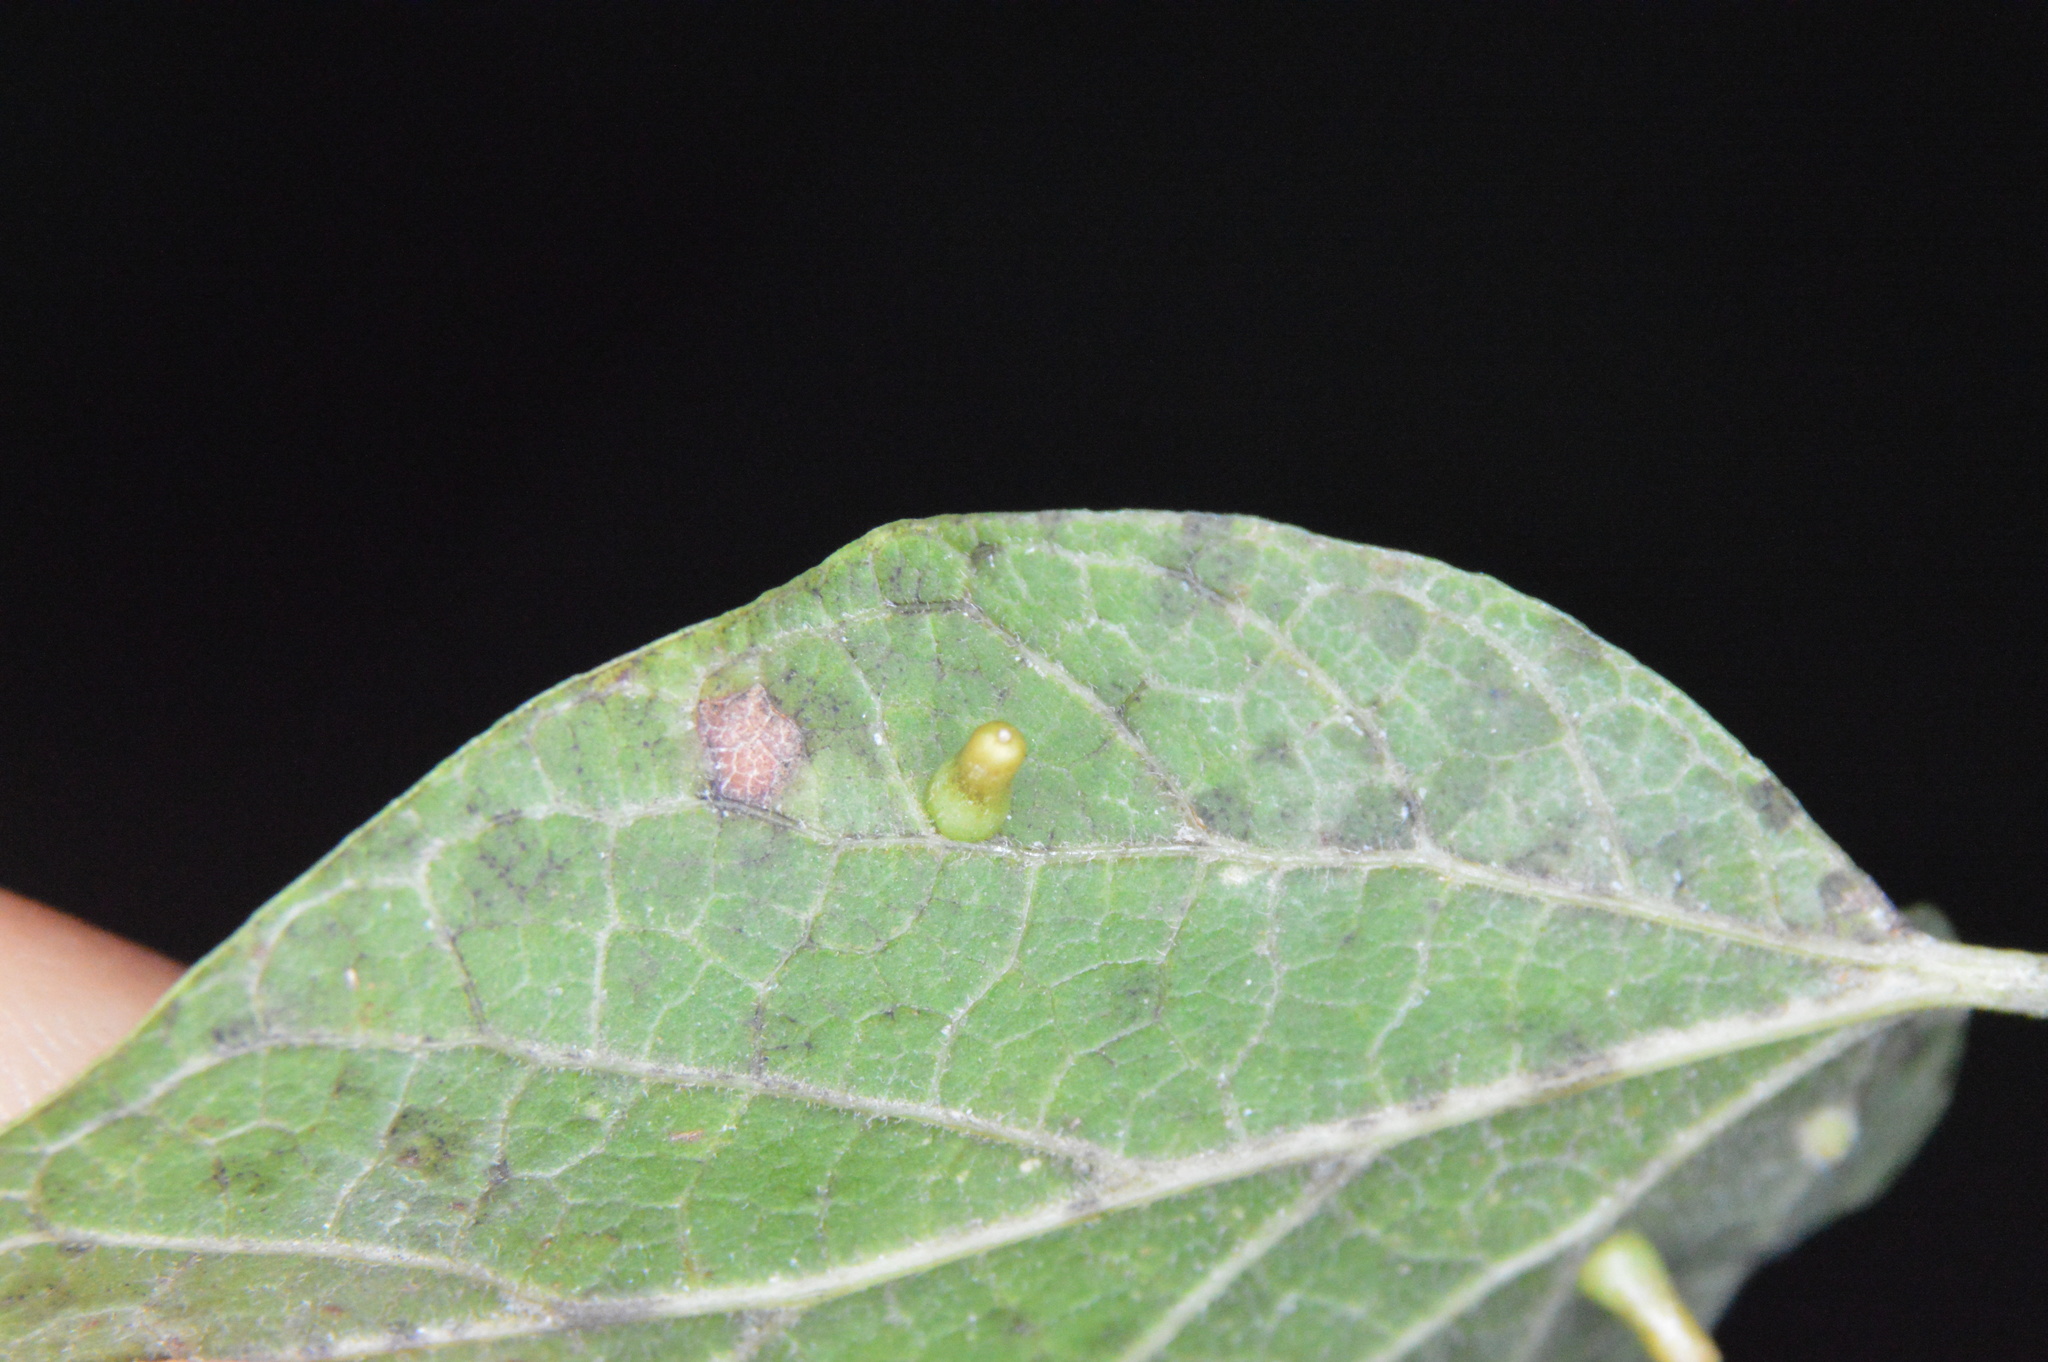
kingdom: Animalia
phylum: Arthropoda
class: Insecta
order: Diptera
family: Cecidomyiidae
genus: Celticecis
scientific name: Celticecis aciculata
